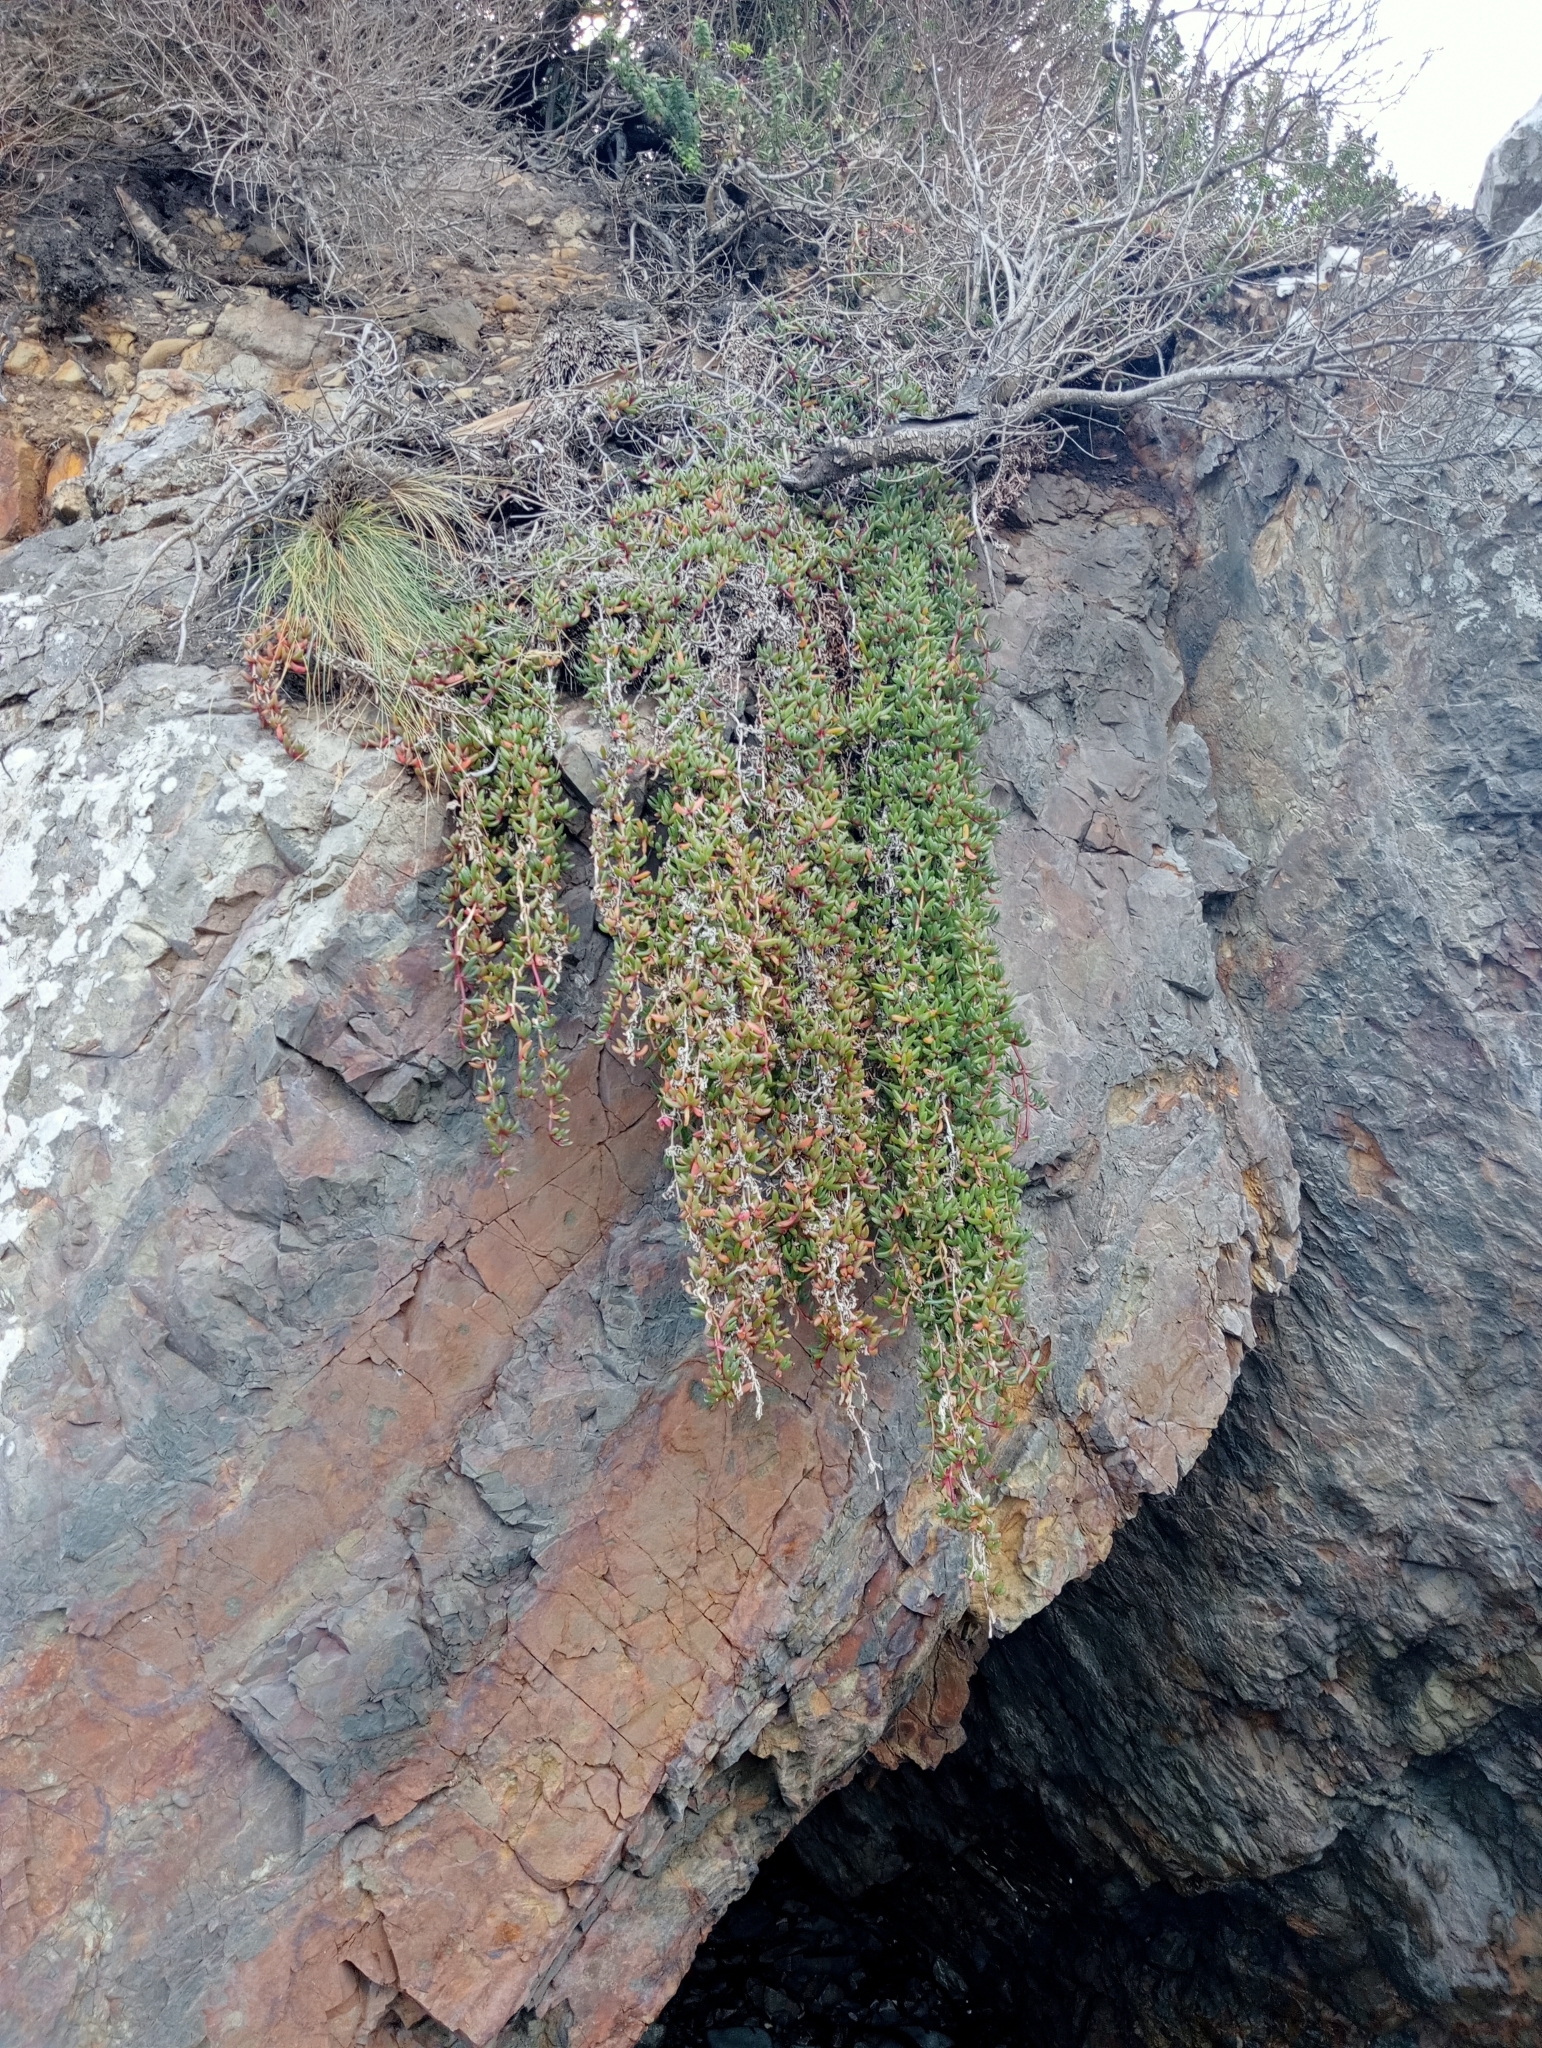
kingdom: Plantae
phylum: Tracheophyta
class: Magnoliopsida
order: Caryophyllales
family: Aizoaceae
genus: Disphyma
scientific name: Disphyma australe
